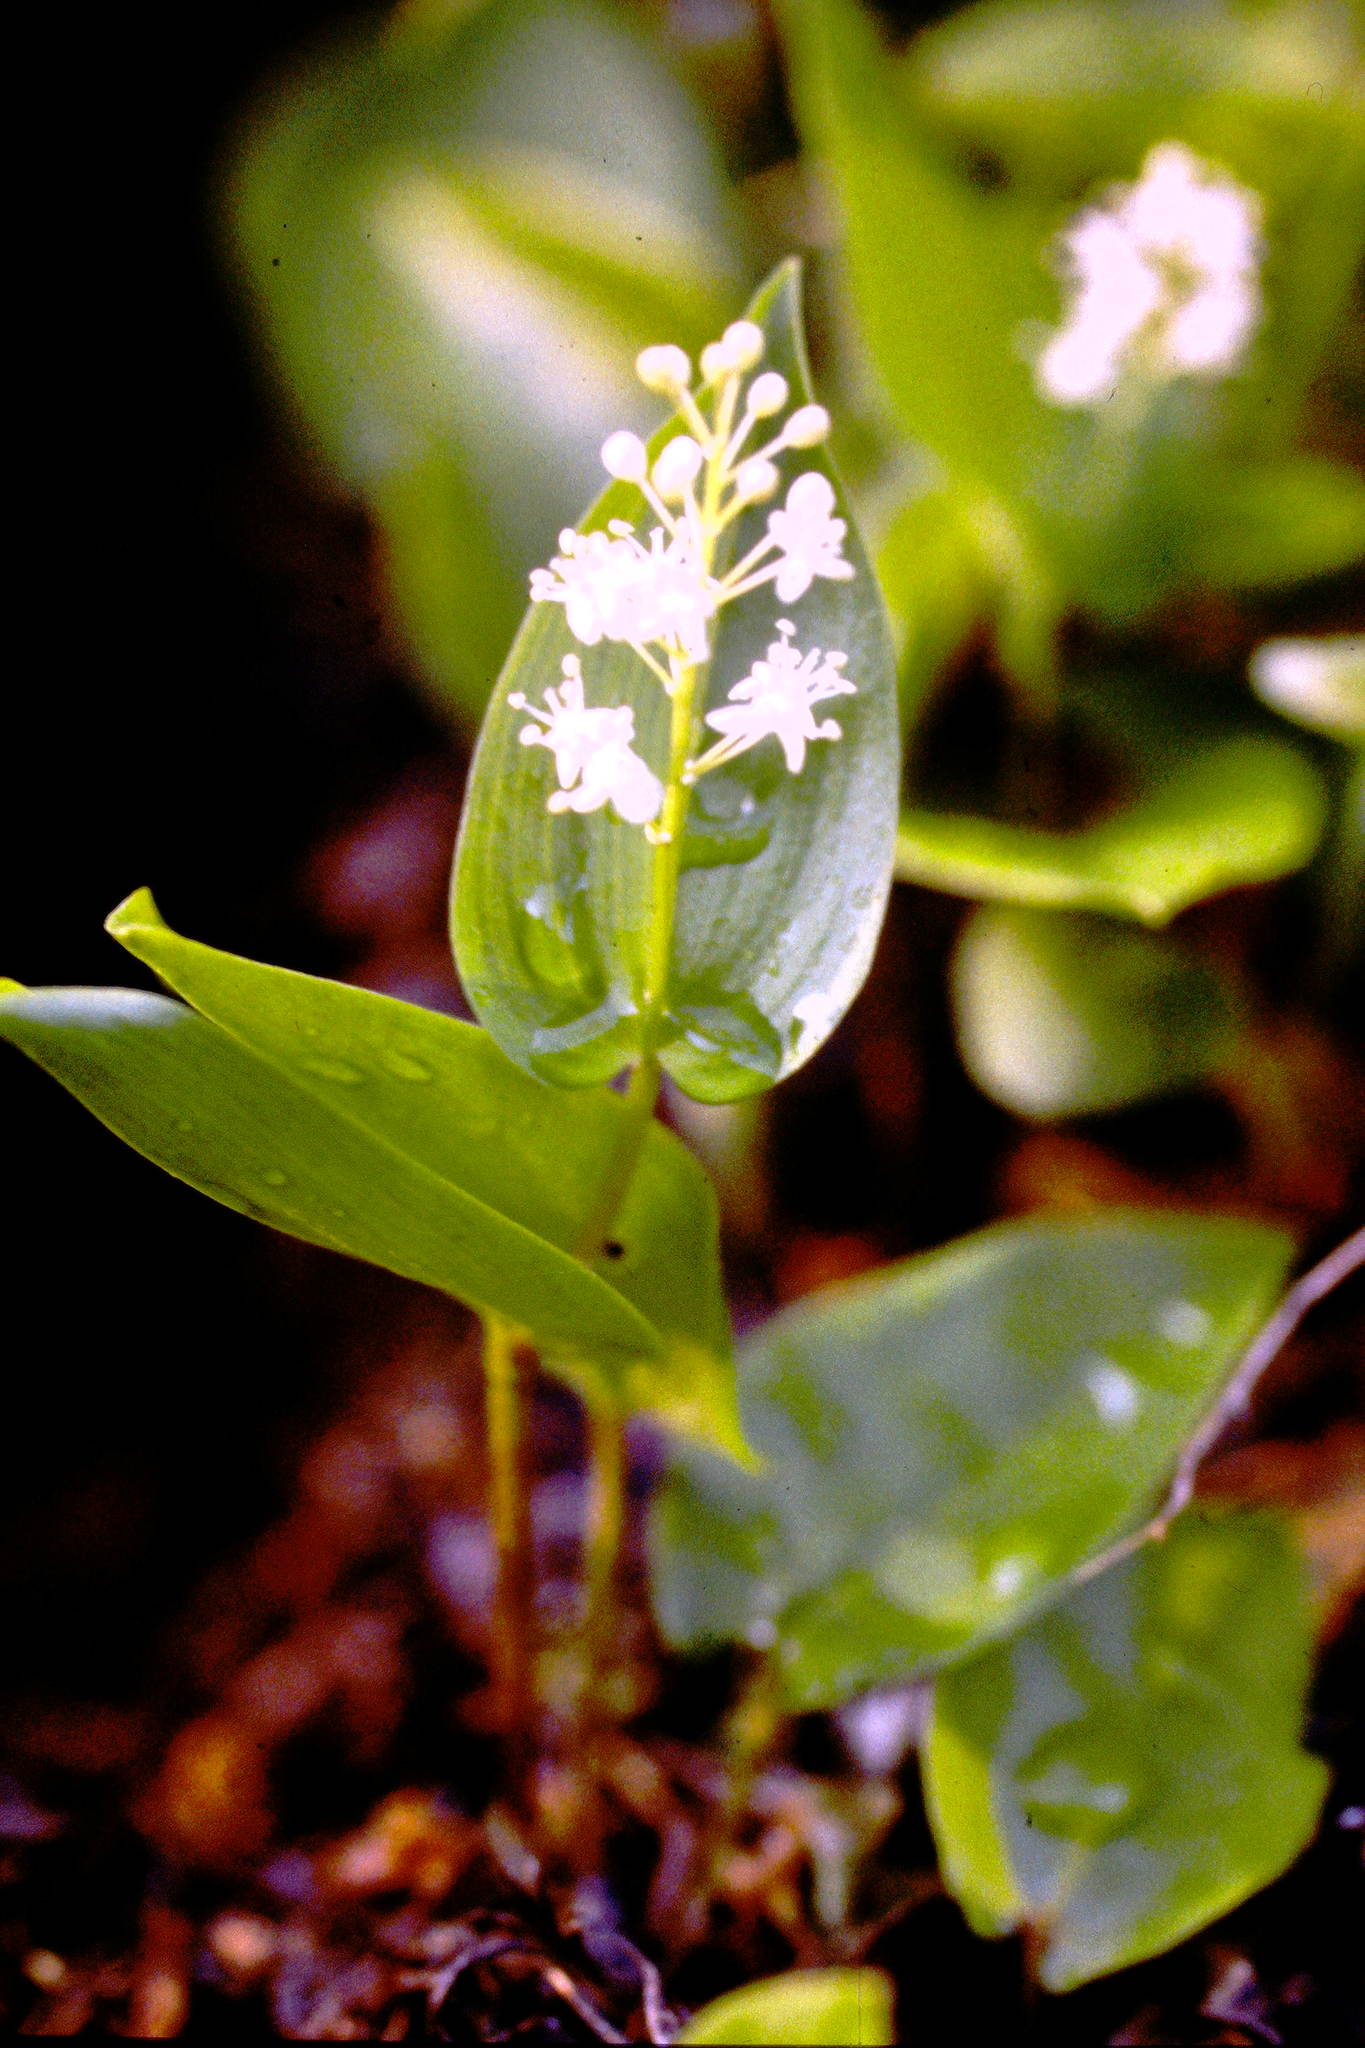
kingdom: Plantae
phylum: Tracheophyta
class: Liliopsida
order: Asparagales
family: Asparagaceae
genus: Maianthemum
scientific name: Maianthemum canadense
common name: False lily-of-the-valley
